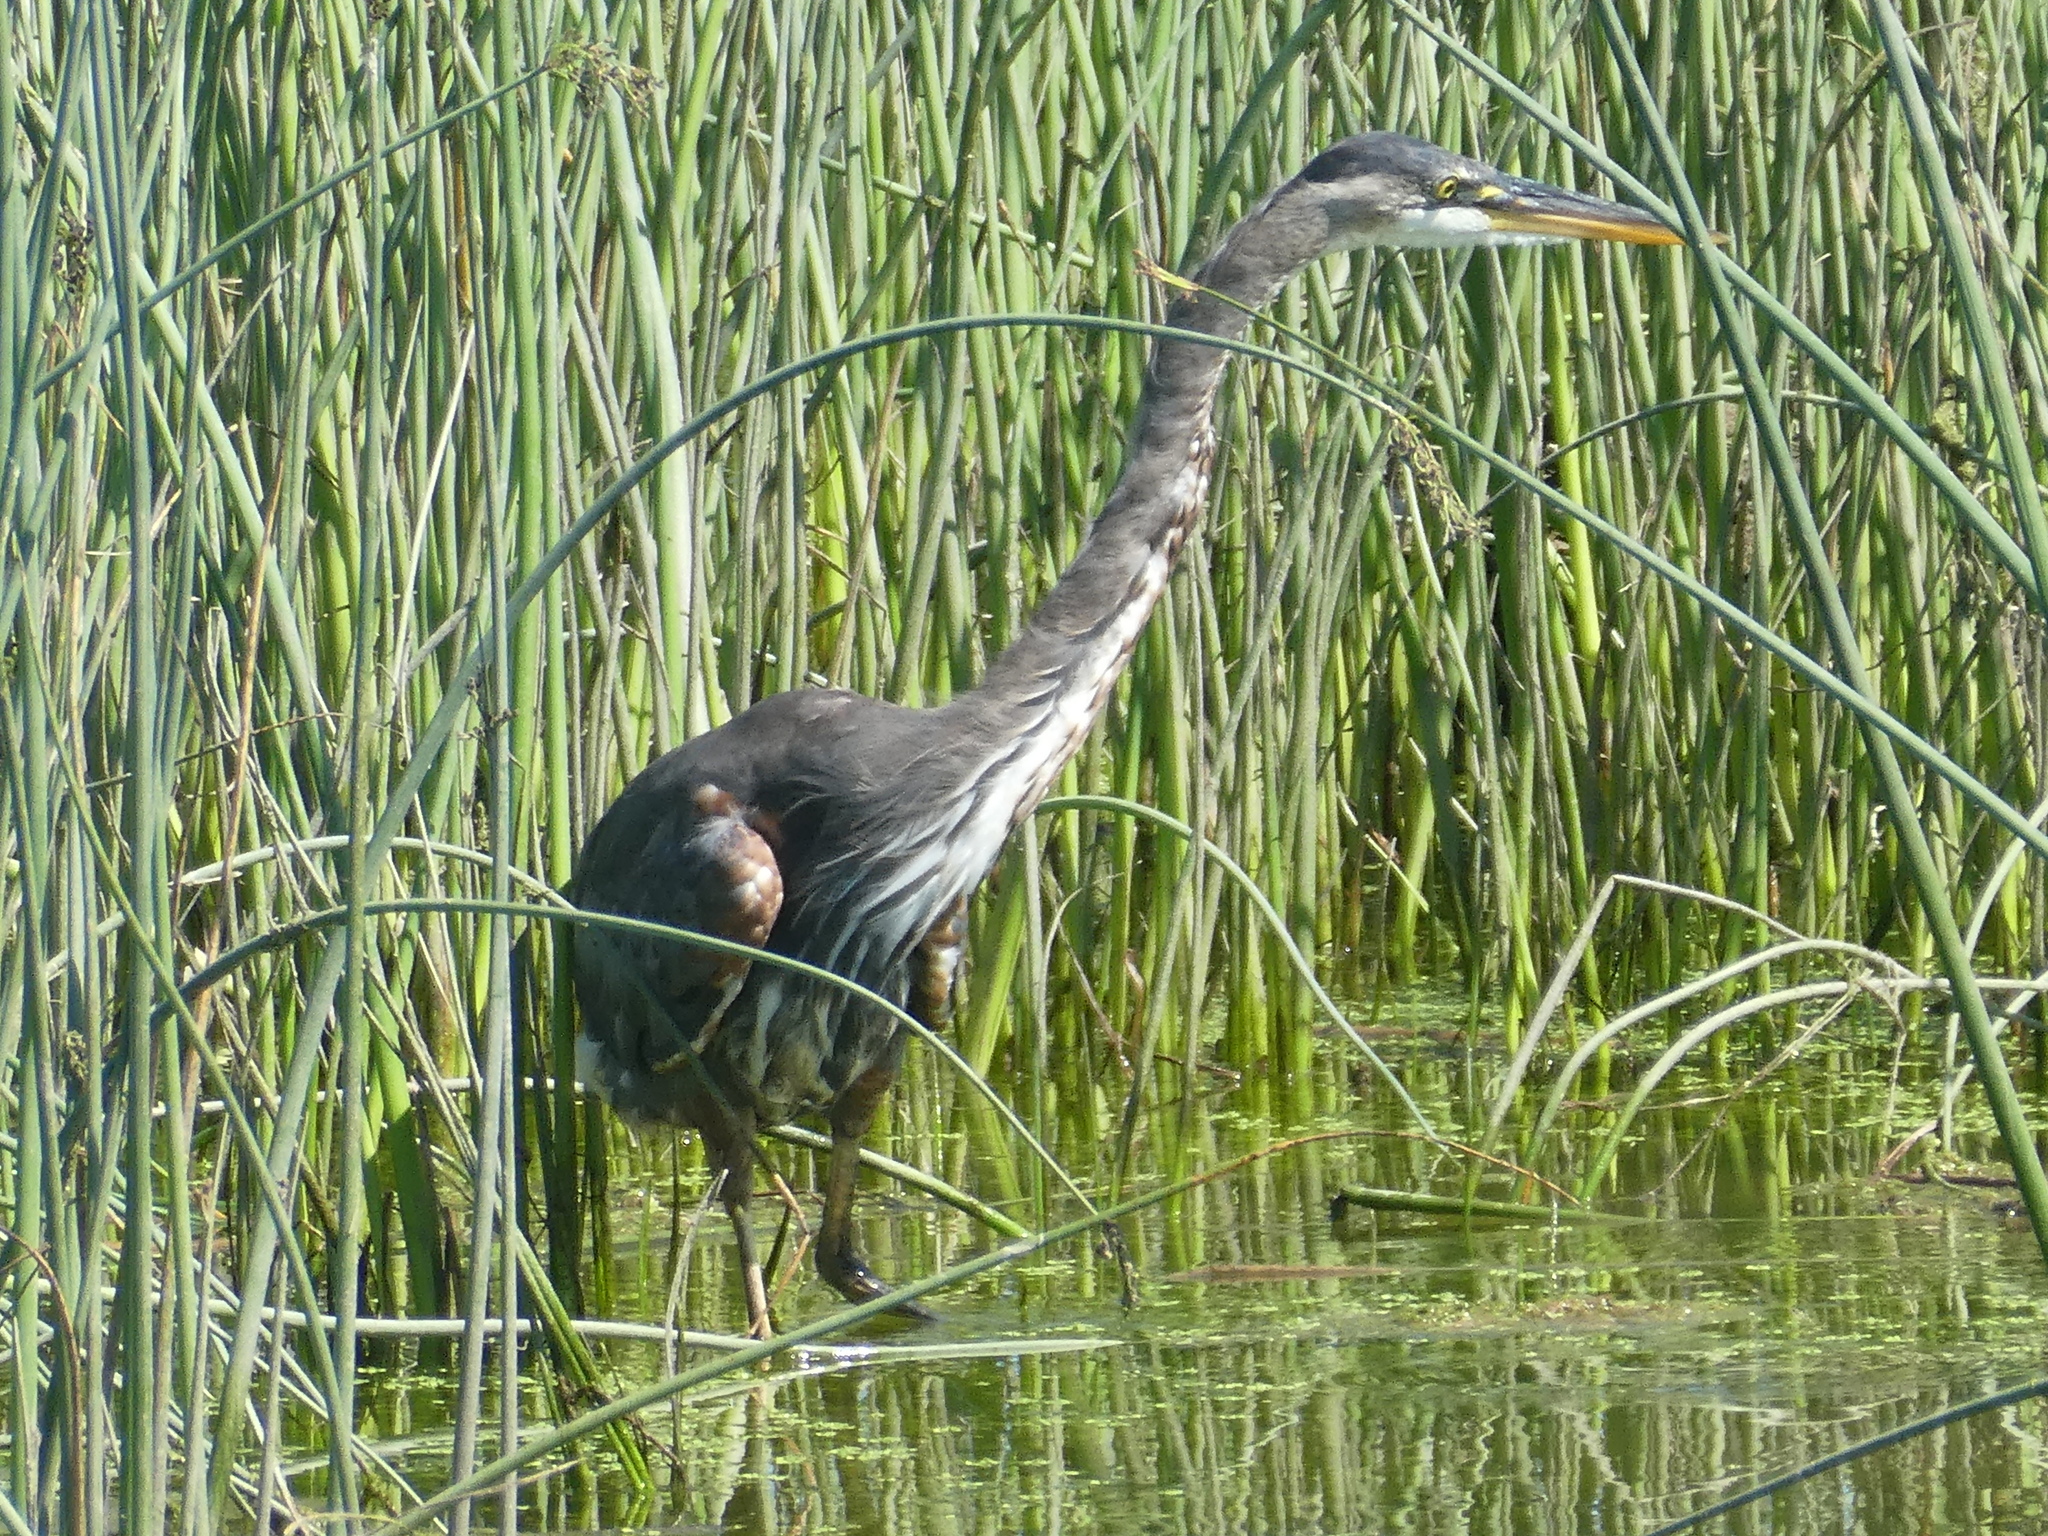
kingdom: Animalia
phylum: Chordata
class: Aves
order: Pelecaniformes
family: Ardeidae
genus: Ardea
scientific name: Ardea herodias
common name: Great blue heron
